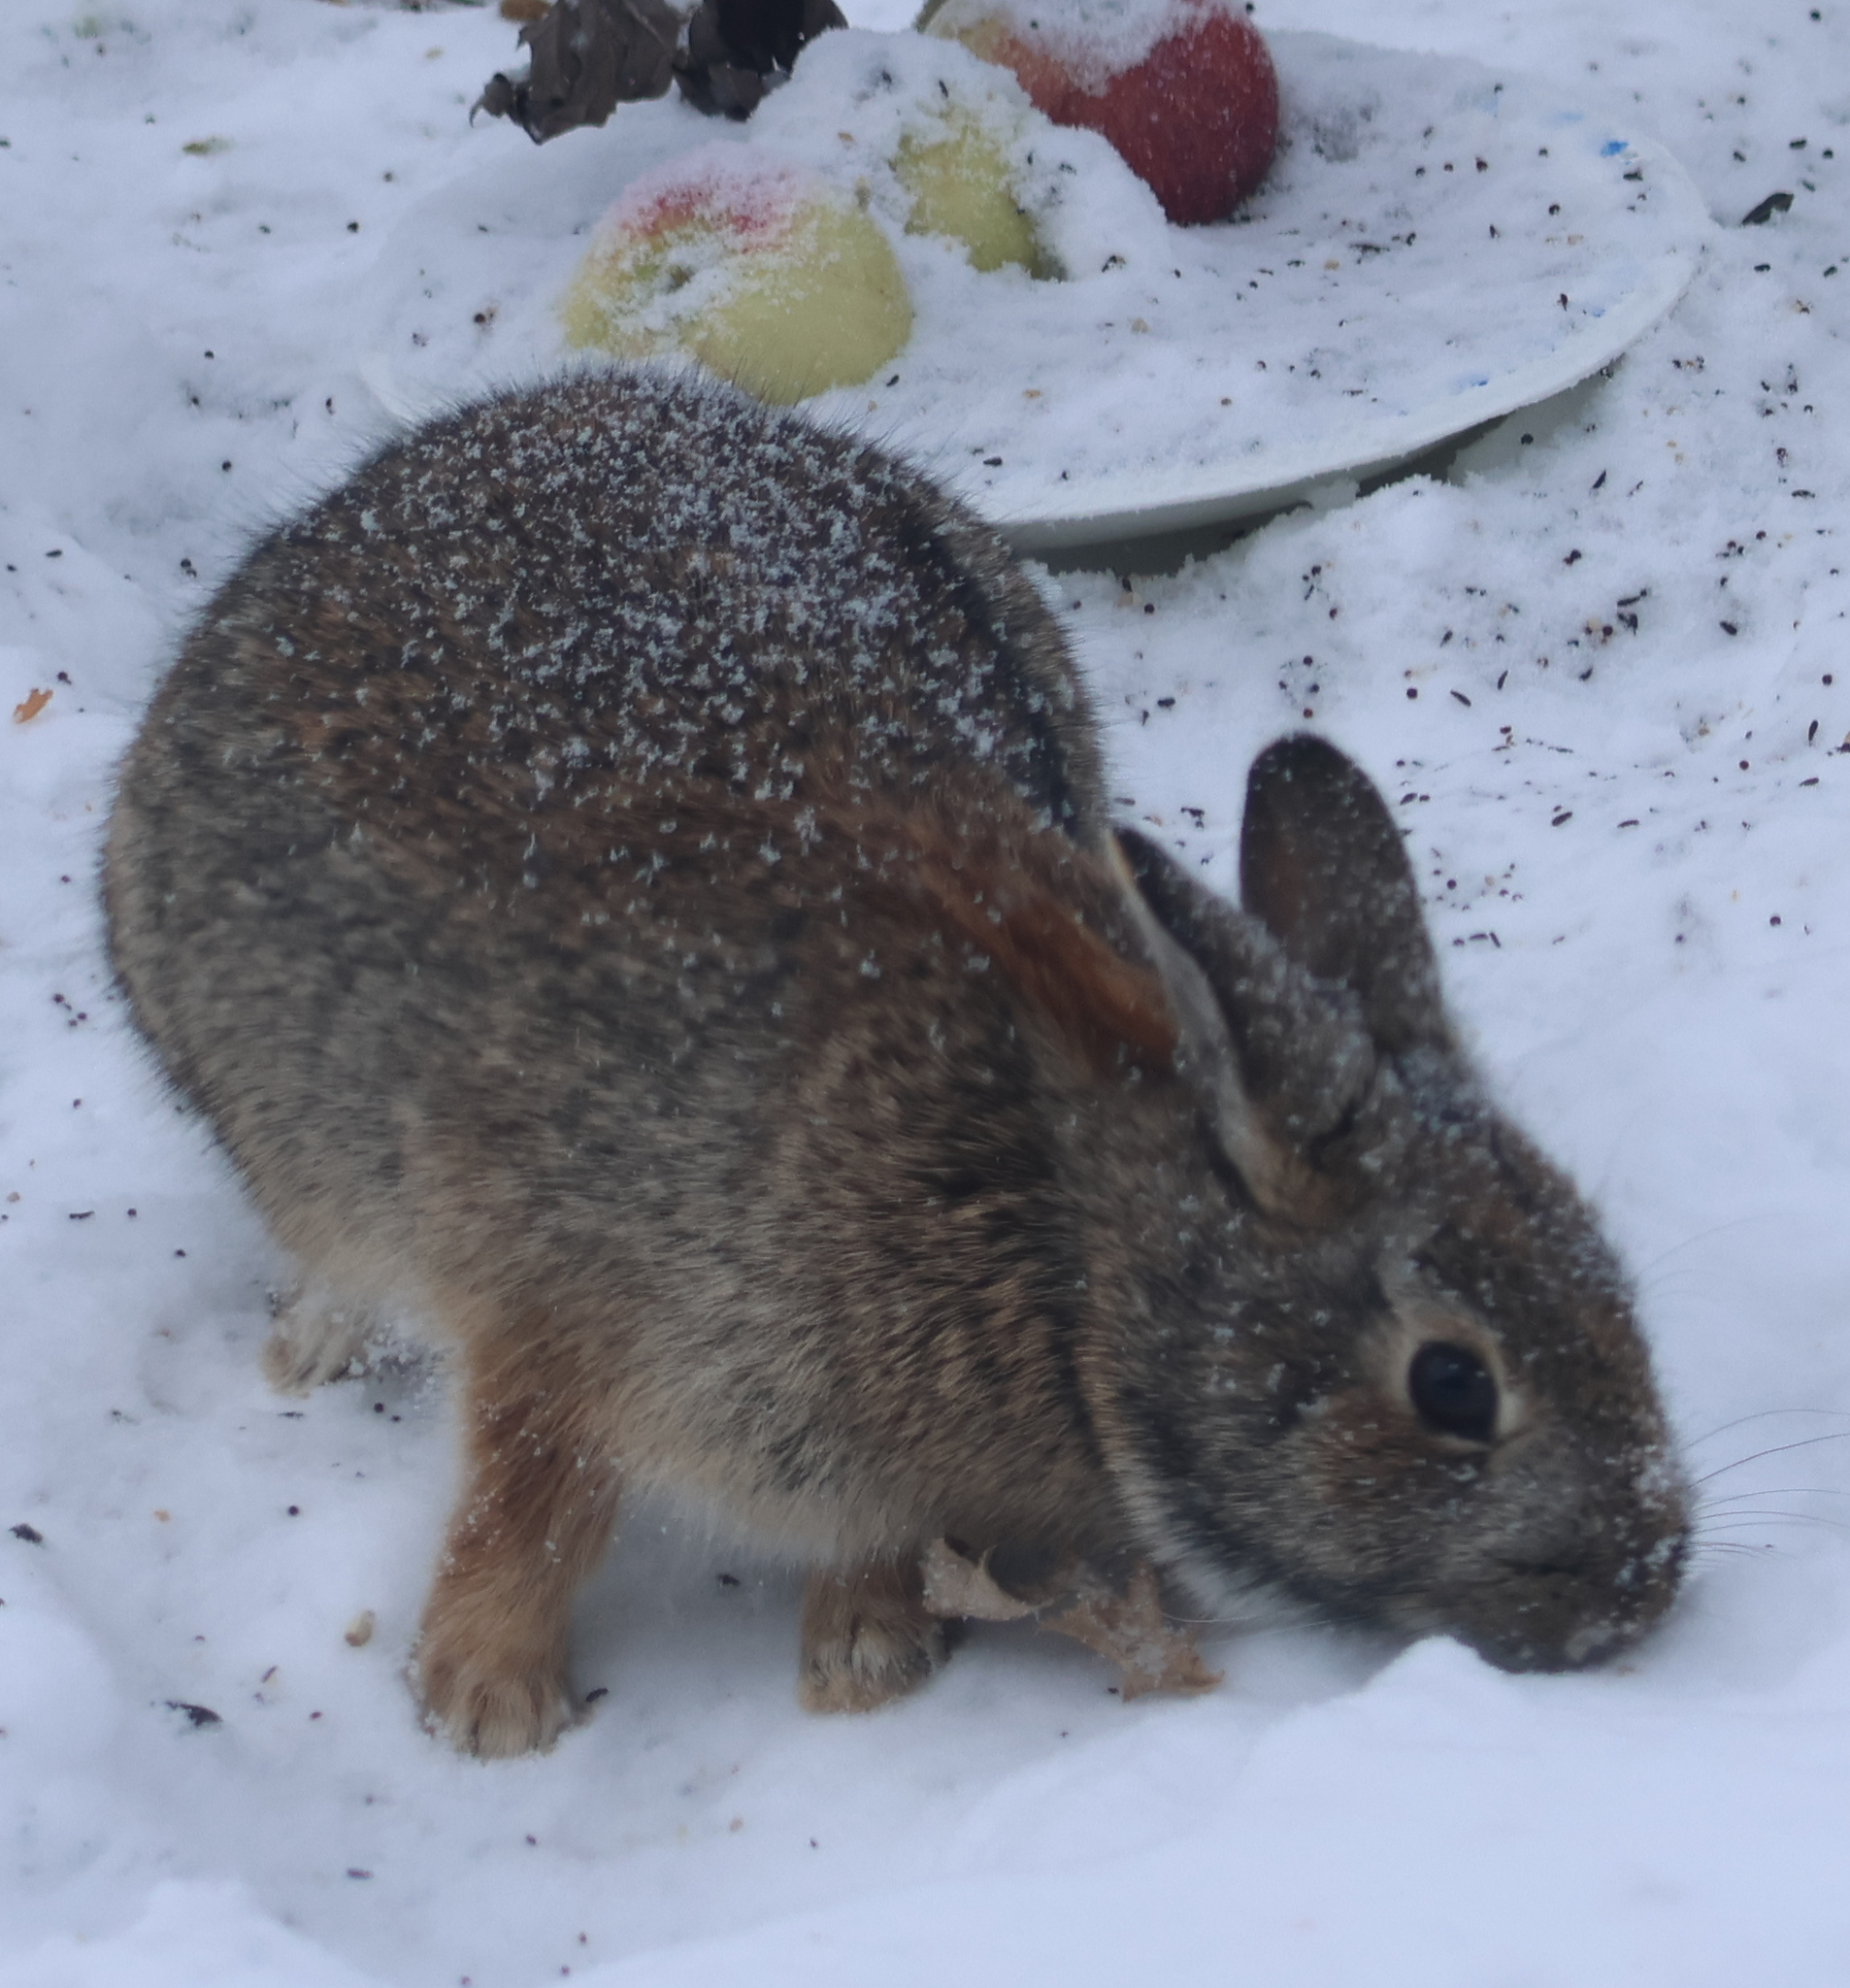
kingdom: Animalia
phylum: Chordata
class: Mammalia
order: Lagomorpha
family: Leporidae
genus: Sylvilagus
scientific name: Sylvilagus floridanus
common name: Eastern cottontail
